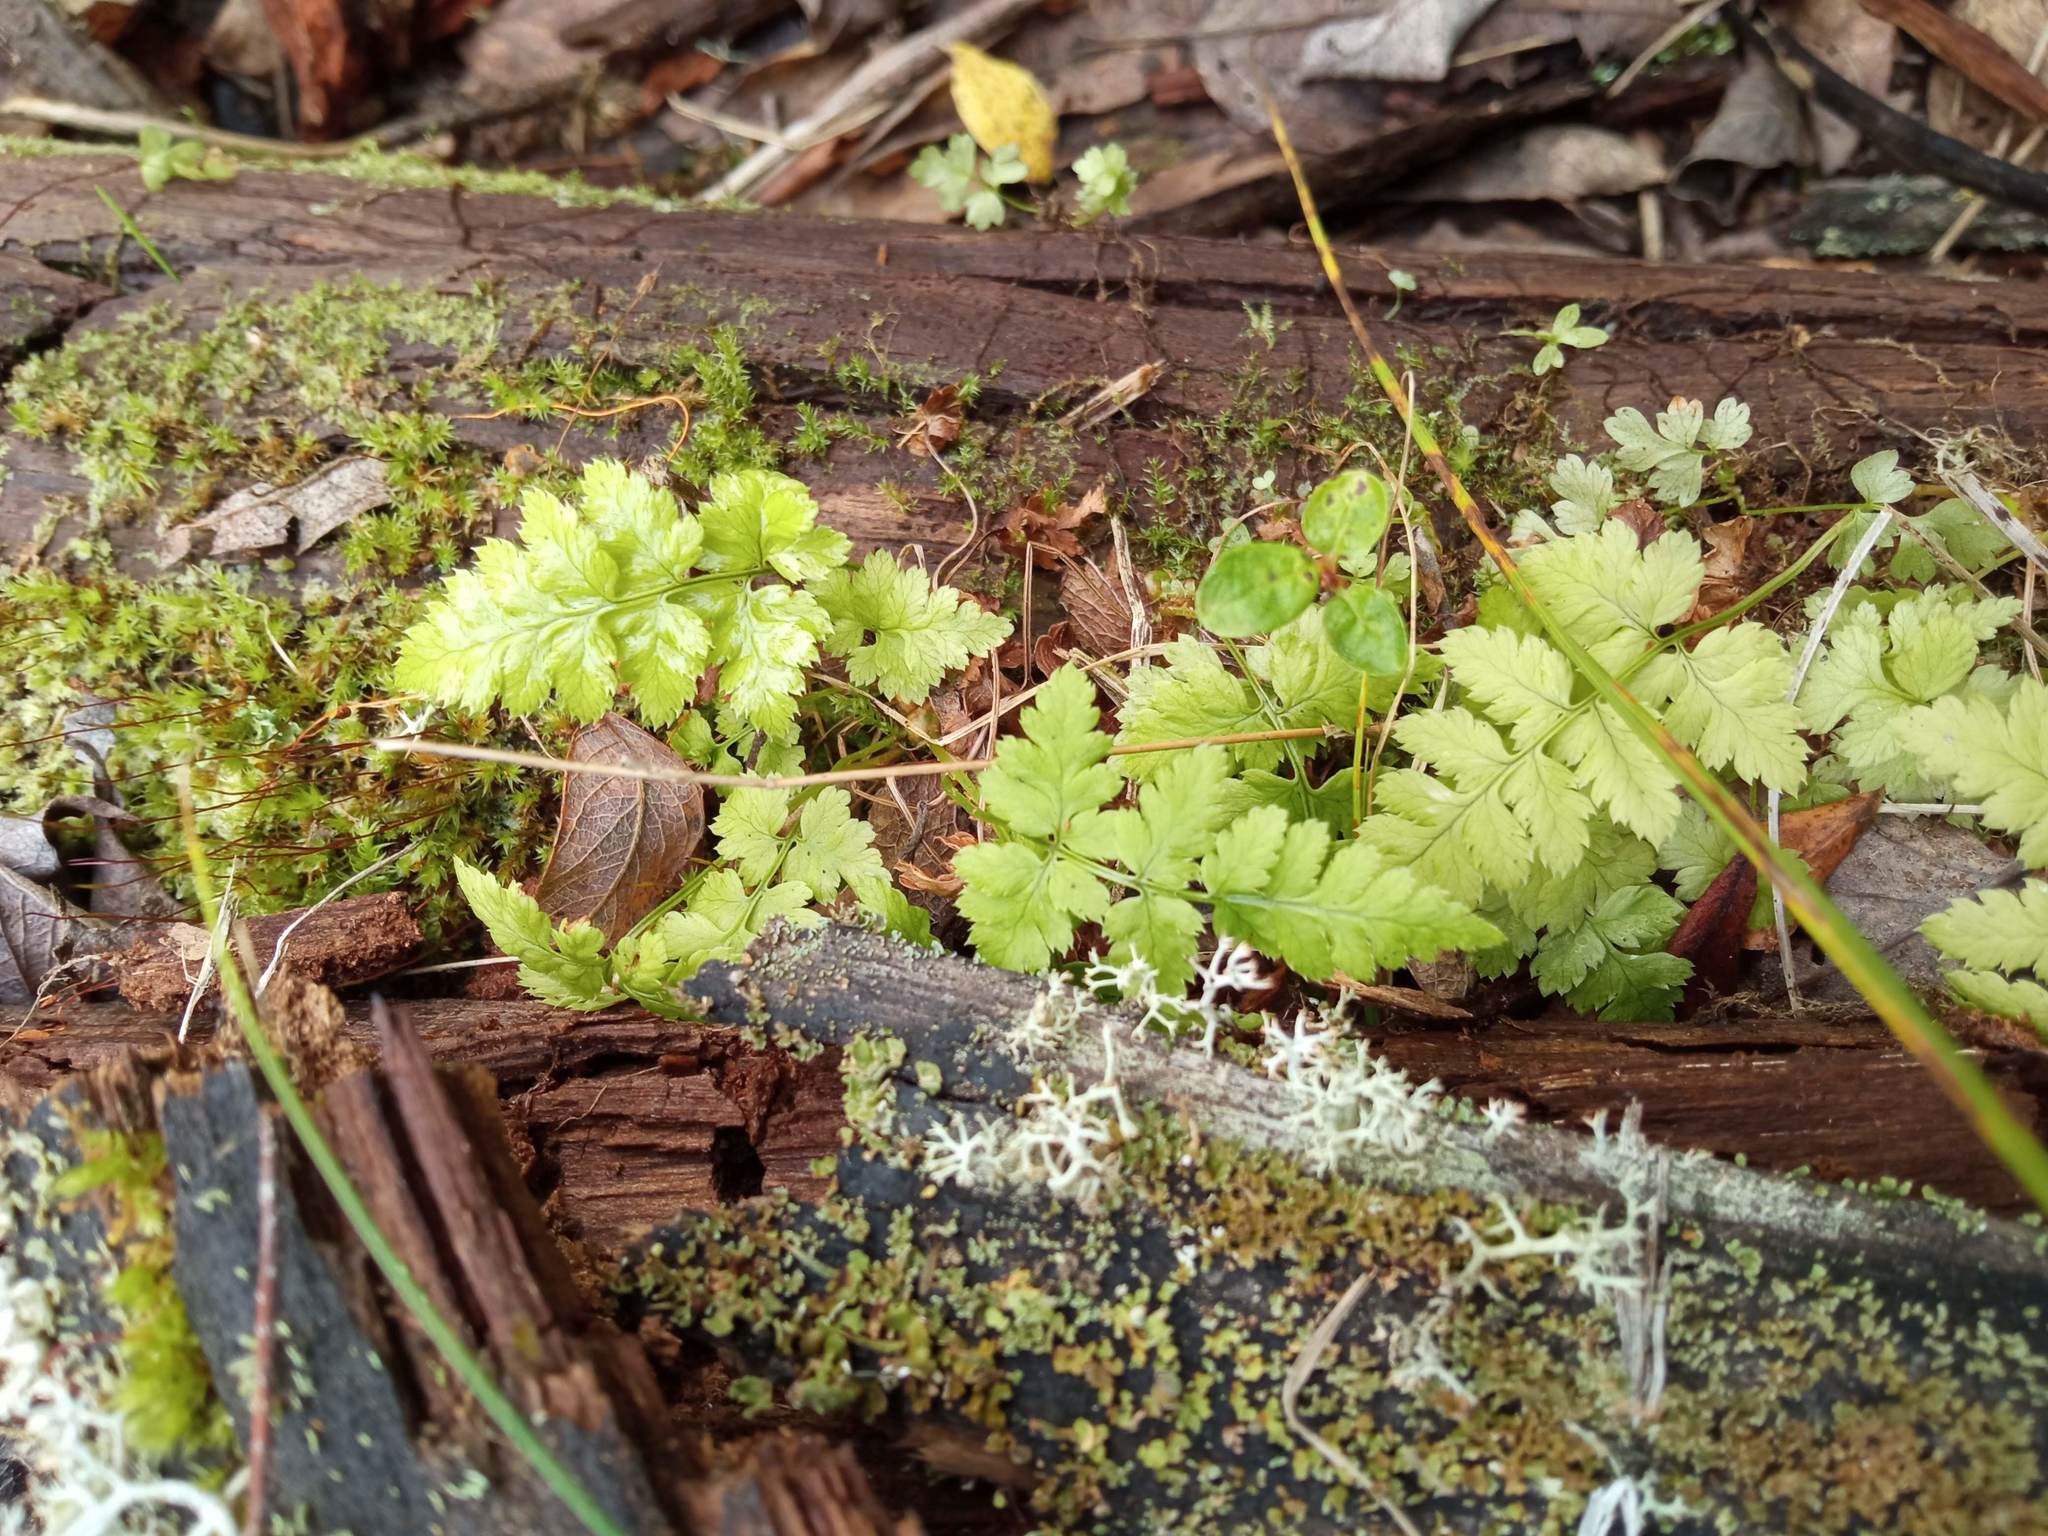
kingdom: Plantae
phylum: Tracheophyta
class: Polypodiopsida
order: Polypodiales
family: Dryopteridaceae
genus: Dryopteris
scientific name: Dryopteris carthusiana
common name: Narrow buckler-fern
